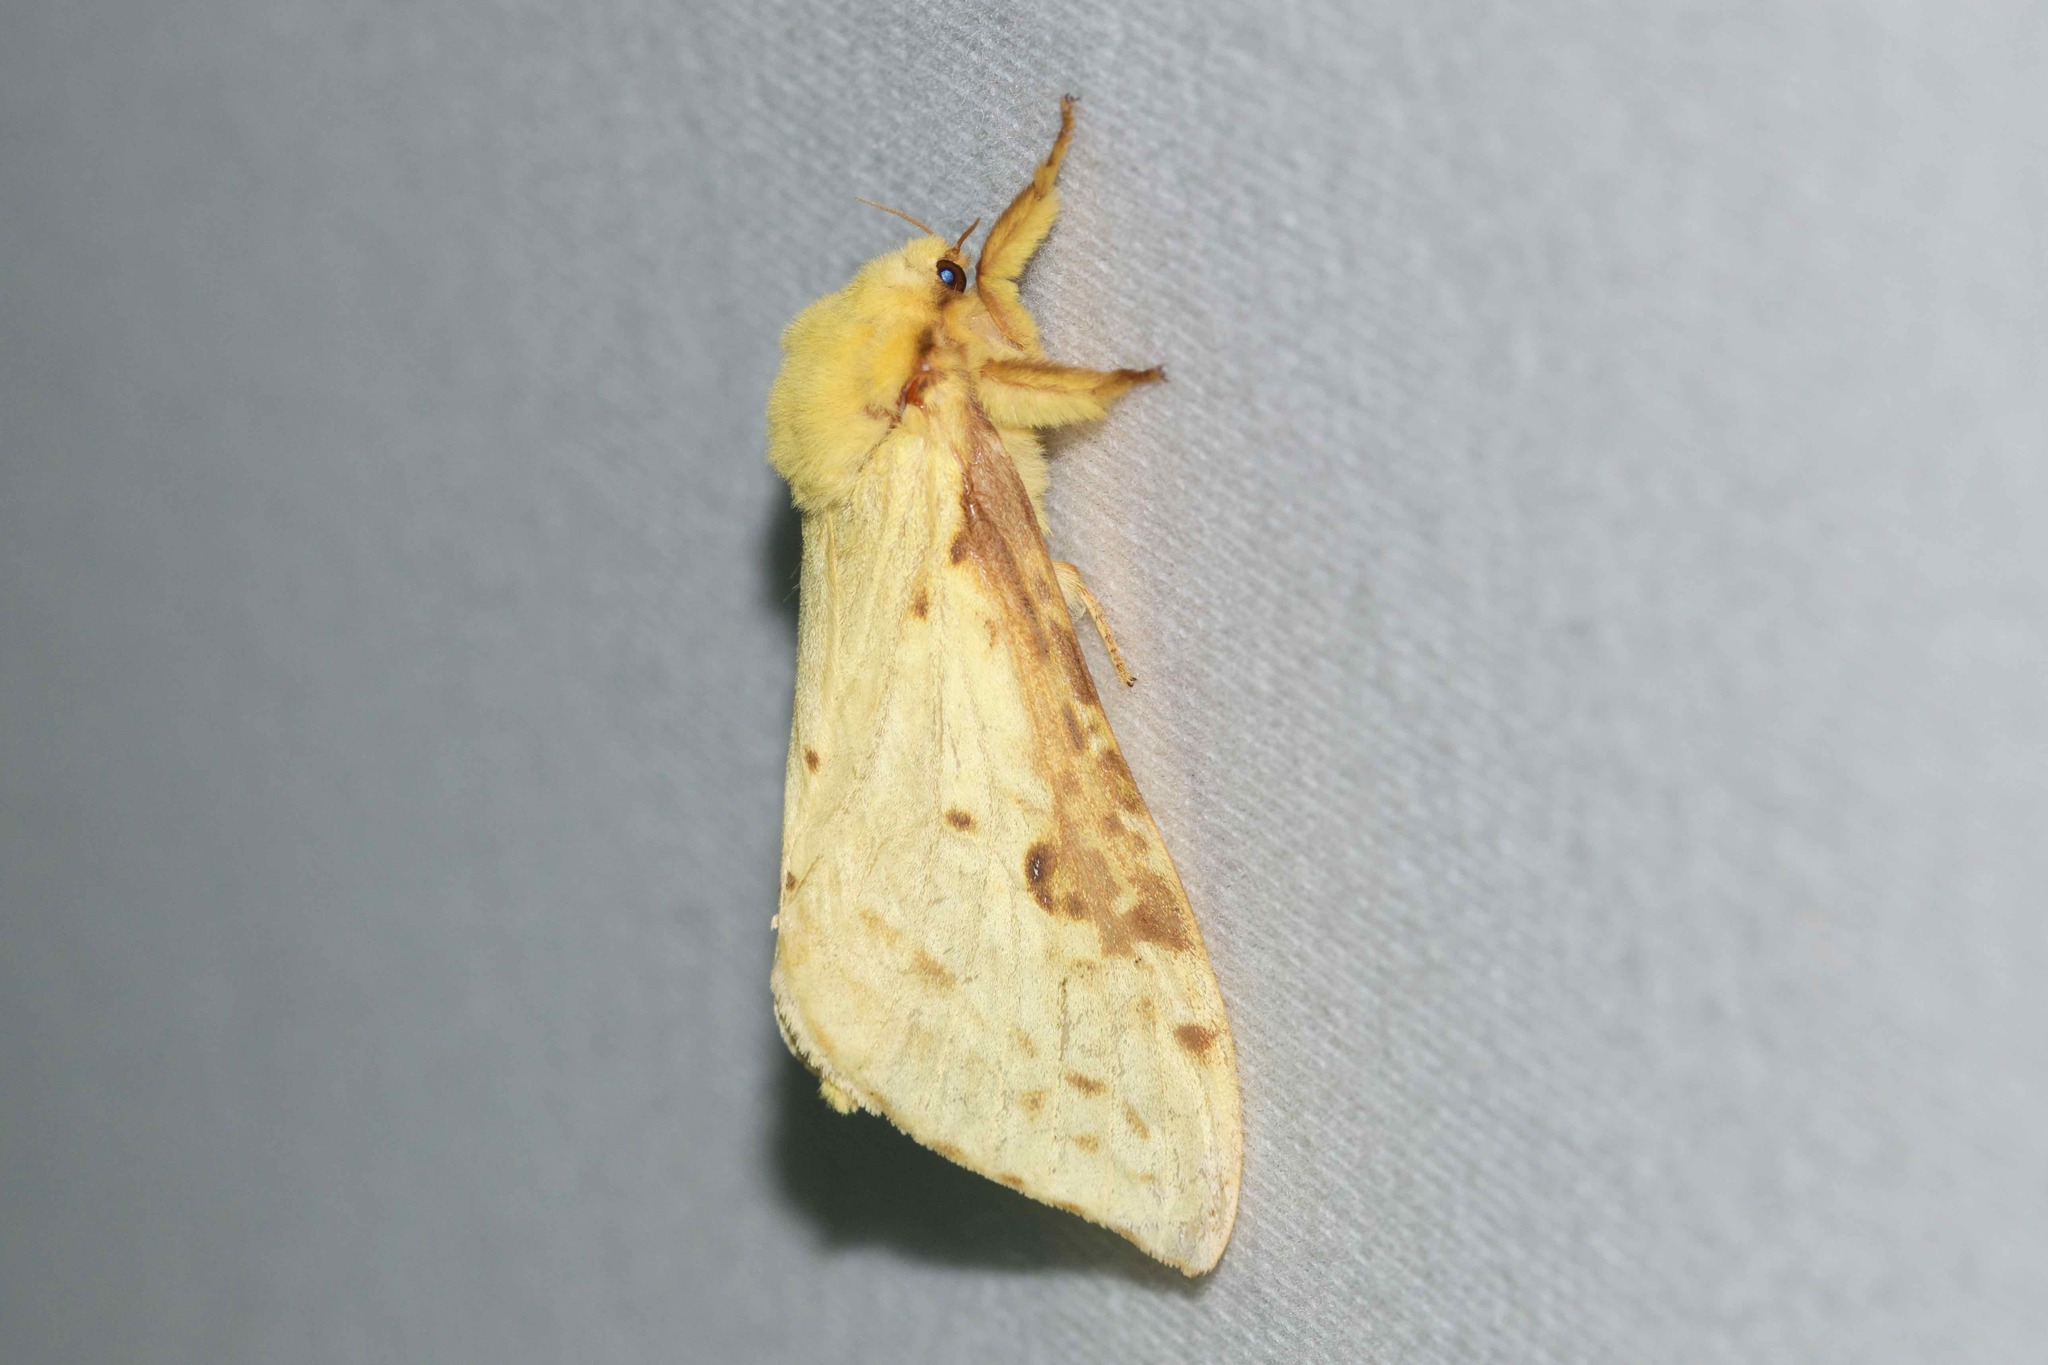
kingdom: Animalia
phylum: Arthropoda
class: Insecta
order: Lepidoptera
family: Hepialidae
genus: Sthenopis
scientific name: Sthenopis thule
